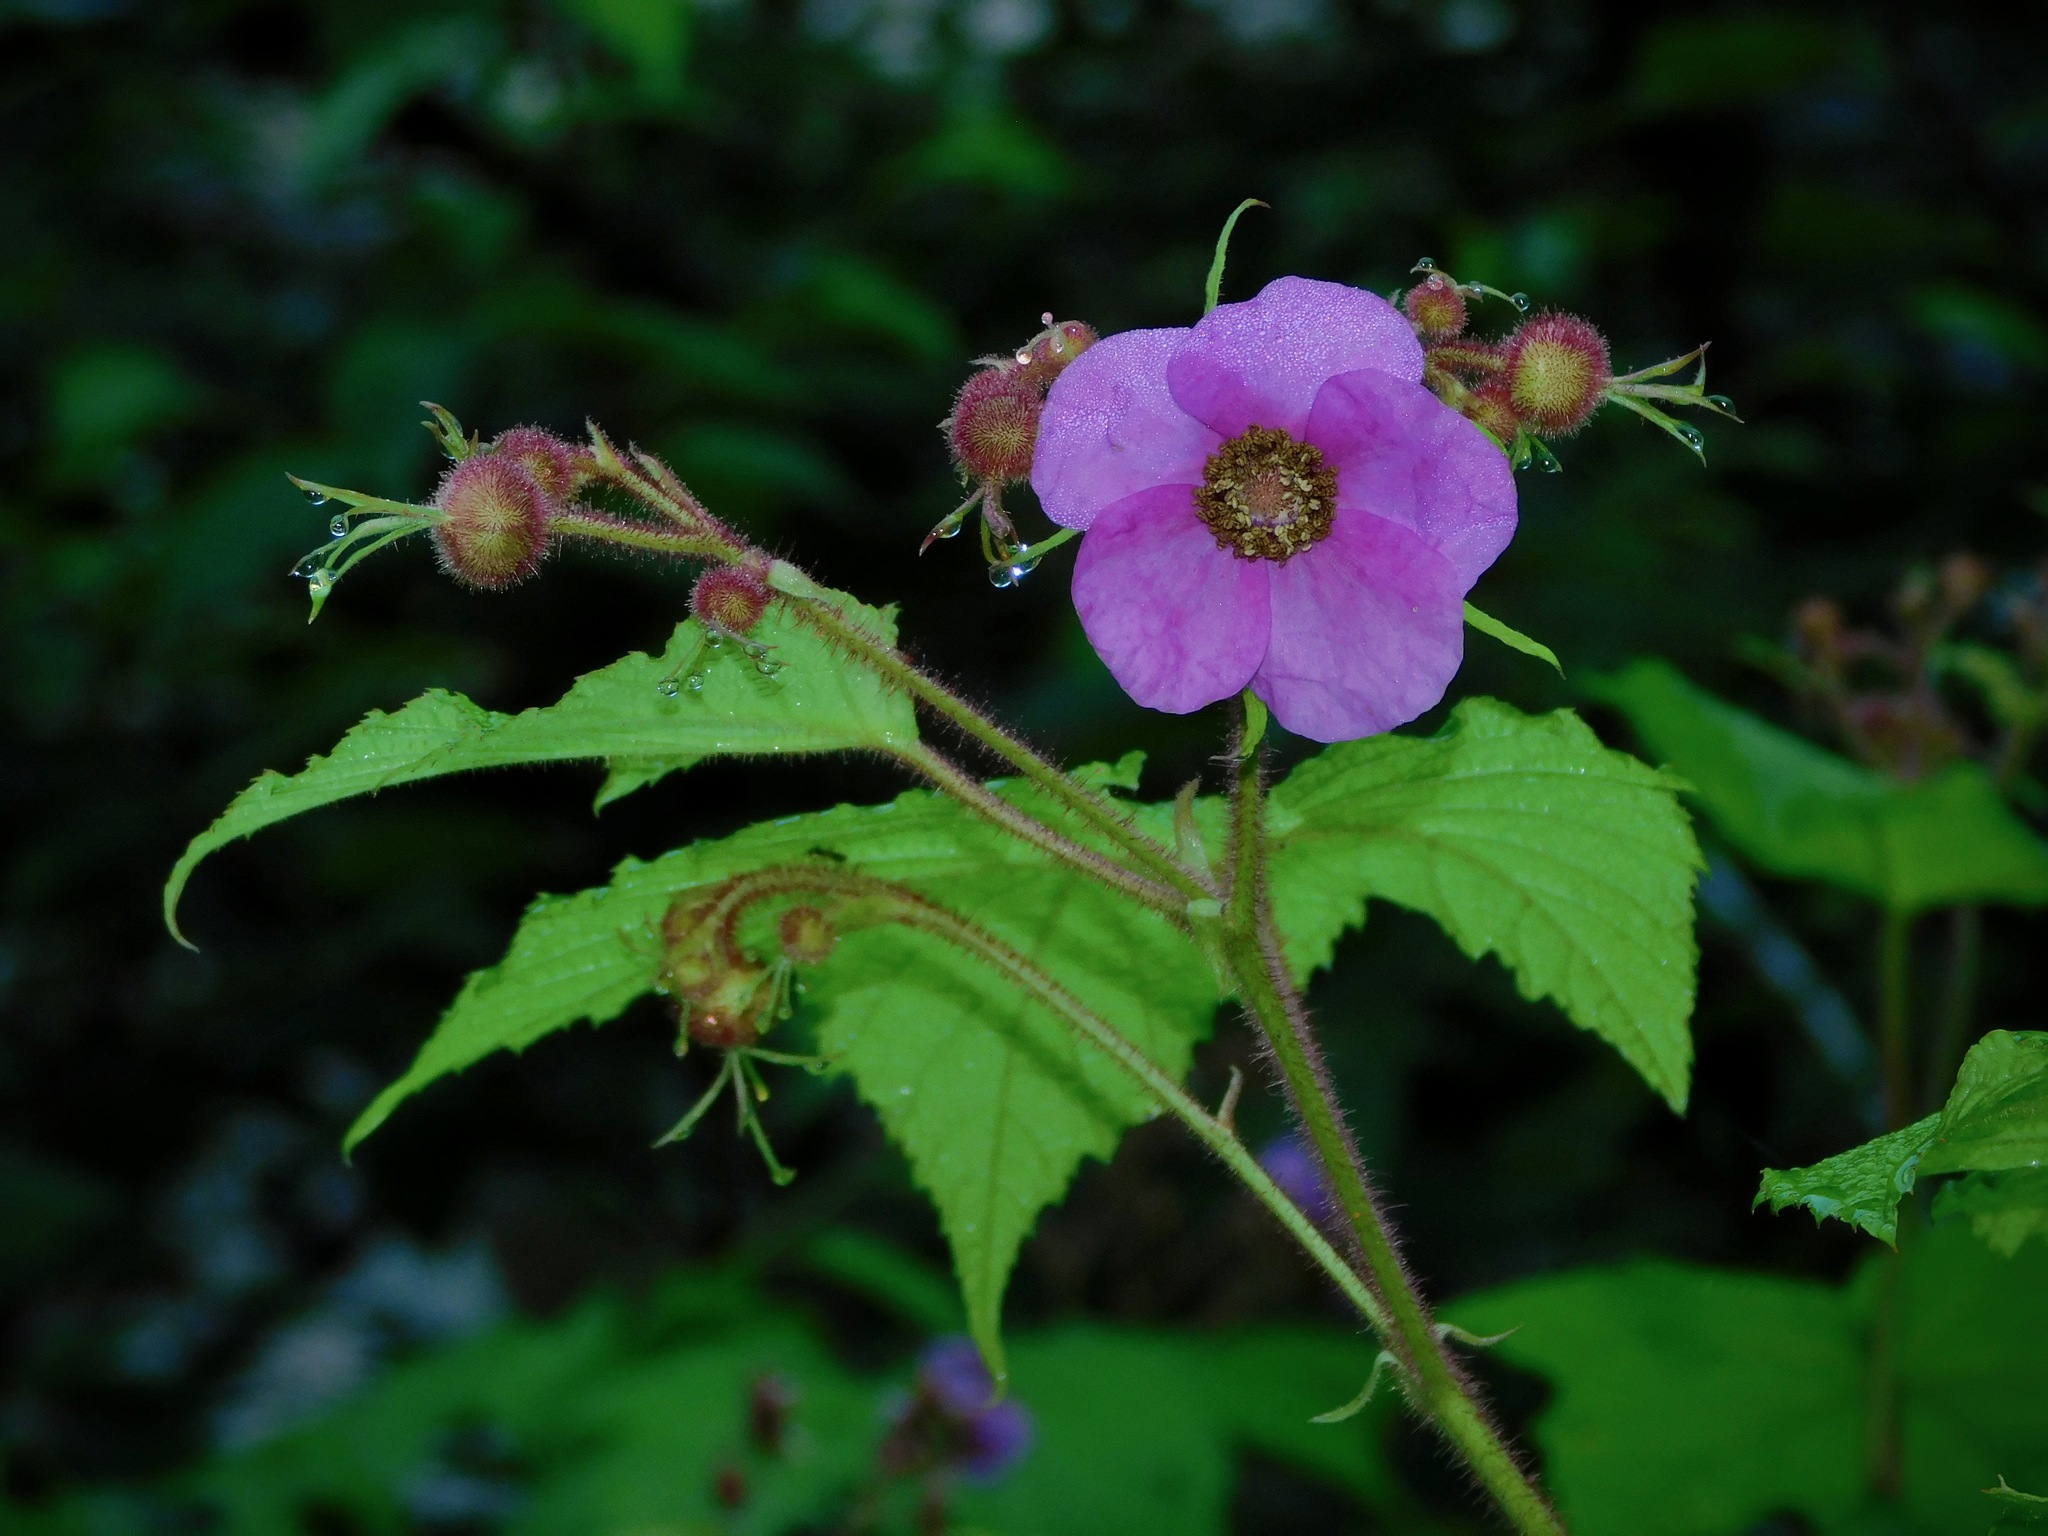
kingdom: Plantae
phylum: Tracheophyta
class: Magnoliopsida
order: Rosales
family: Rosaceae
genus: Rubus
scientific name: Rubus odoratus
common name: Purple-flowered raspberry
